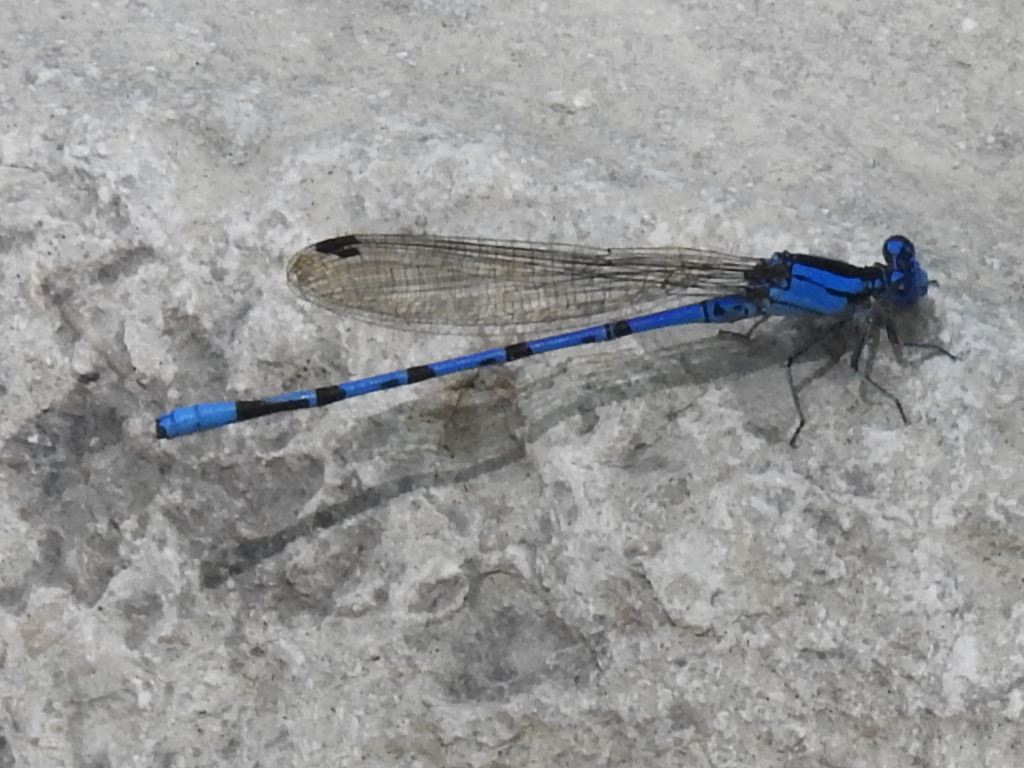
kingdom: Animalia
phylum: Arthropoda
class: Insecta
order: Odonata
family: Coenagrionidae
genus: Argia
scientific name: Argia funebris
